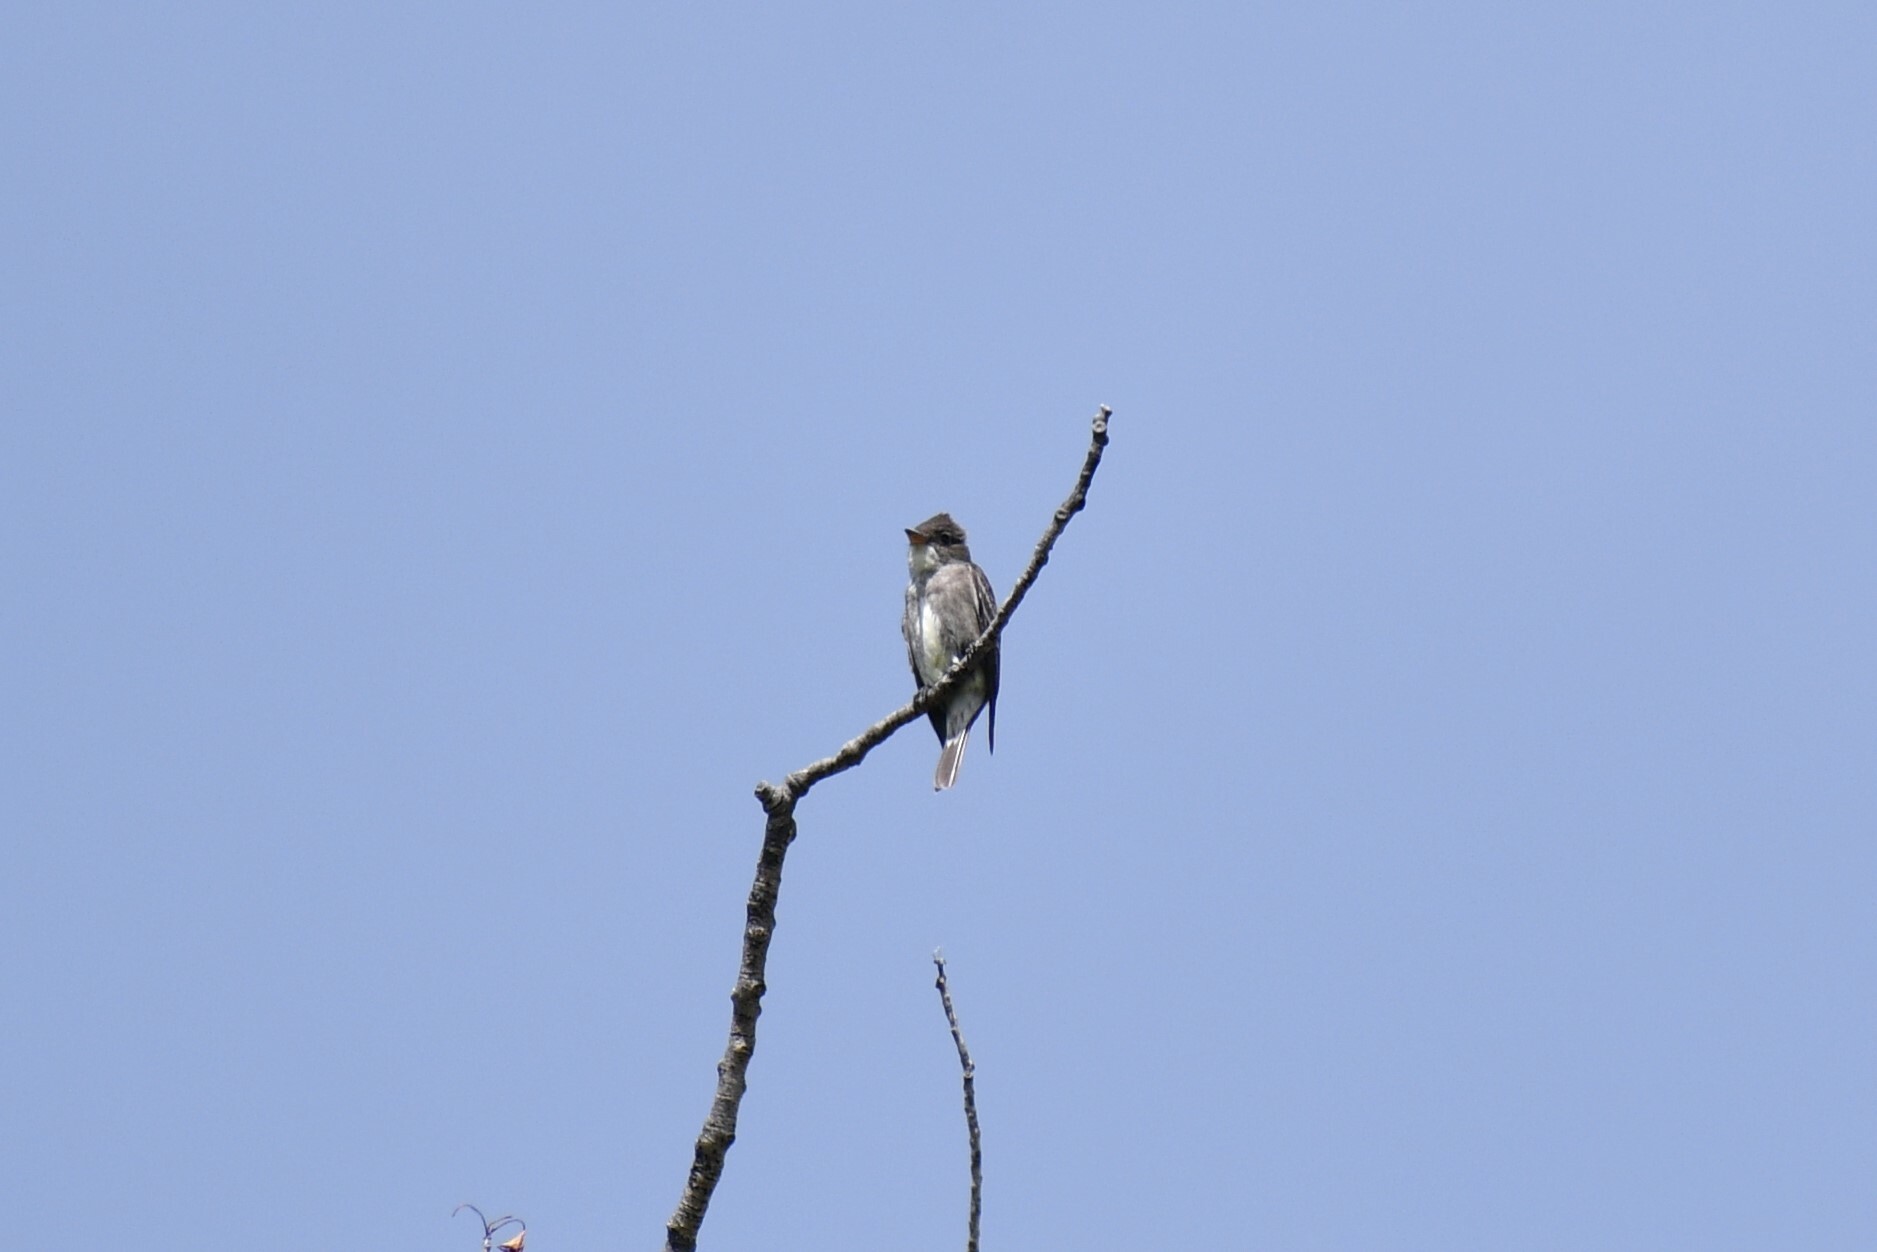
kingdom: Animalia
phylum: Chordata
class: Aves
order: Passeriformes
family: Tyrannidae
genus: Contopus
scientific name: Contopus cooperi
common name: Olive-sided flycatcher
